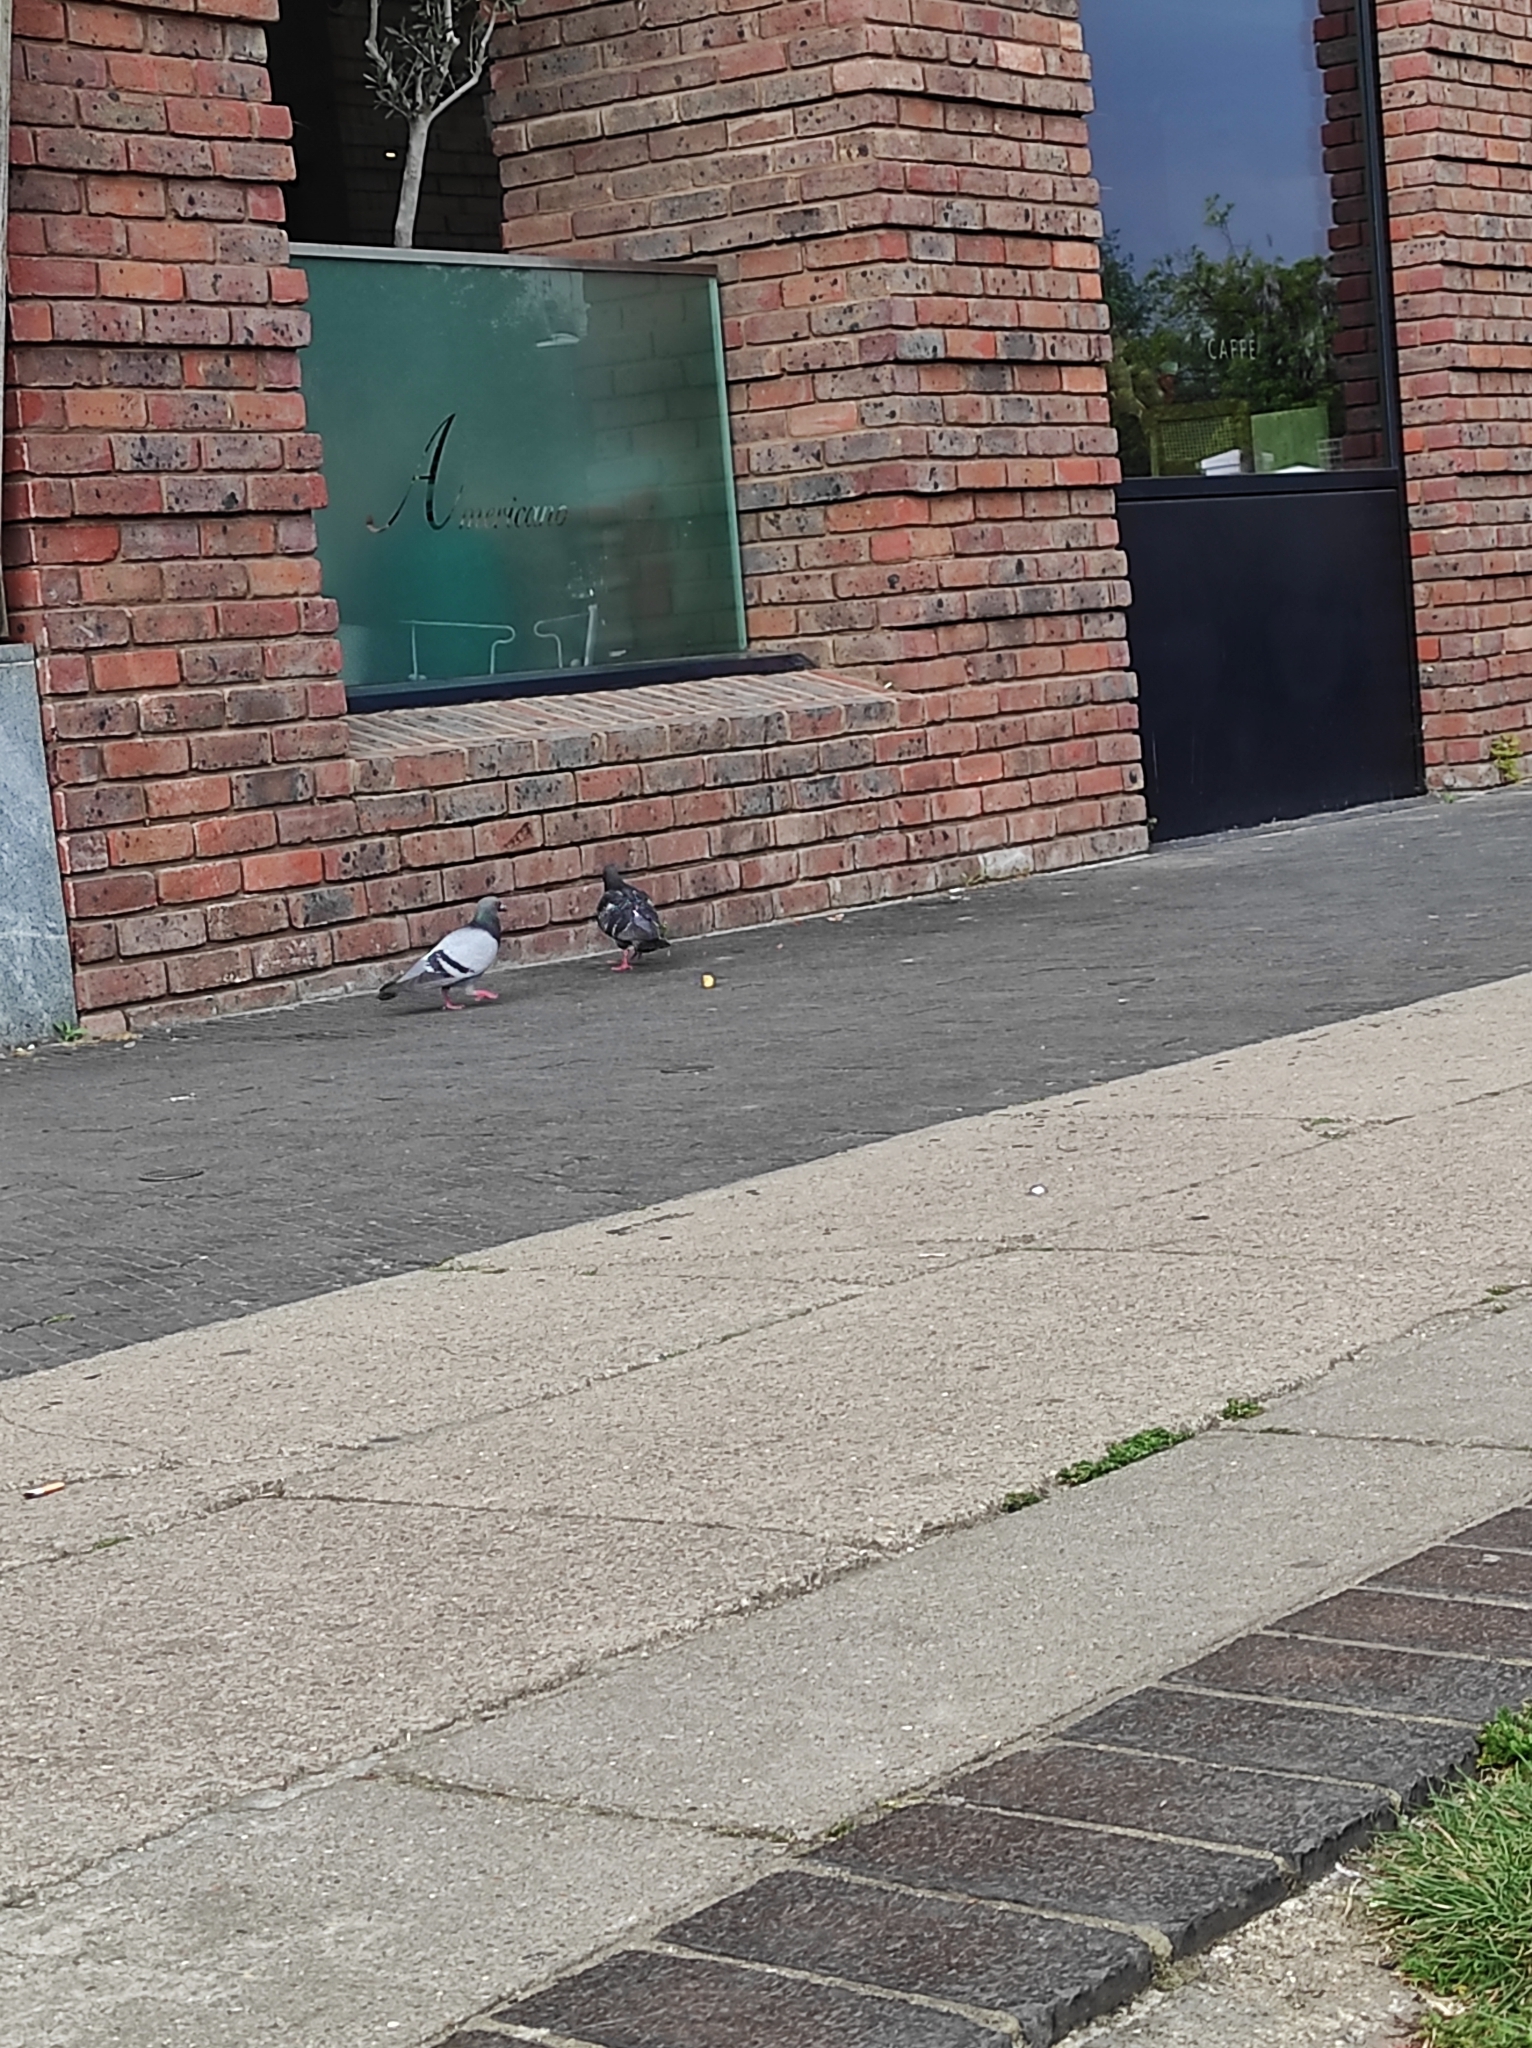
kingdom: Animalia
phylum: Chordata
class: Aves
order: Columbiformes
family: Columbidae
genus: Columba
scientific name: Columba livia
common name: Rock pigeon
